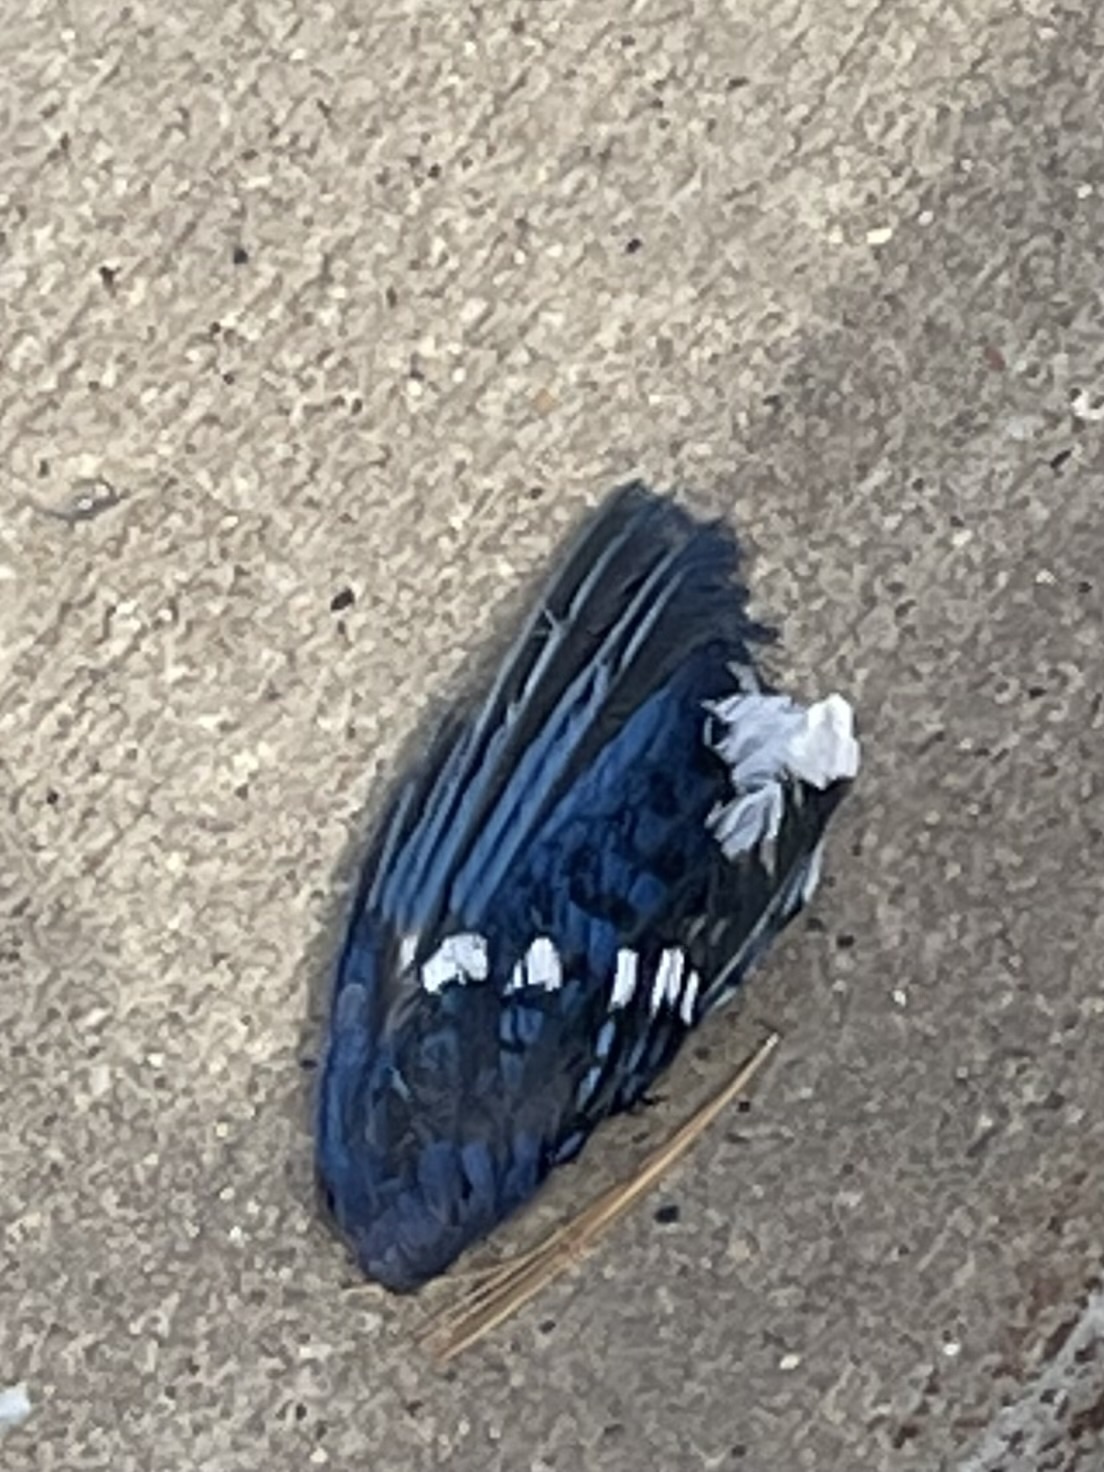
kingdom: Animalia
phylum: Chordata
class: Aves
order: Passeriformes
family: Corvidae
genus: Cyanocitta
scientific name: Cyanocitta cristata
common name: Blue jay
